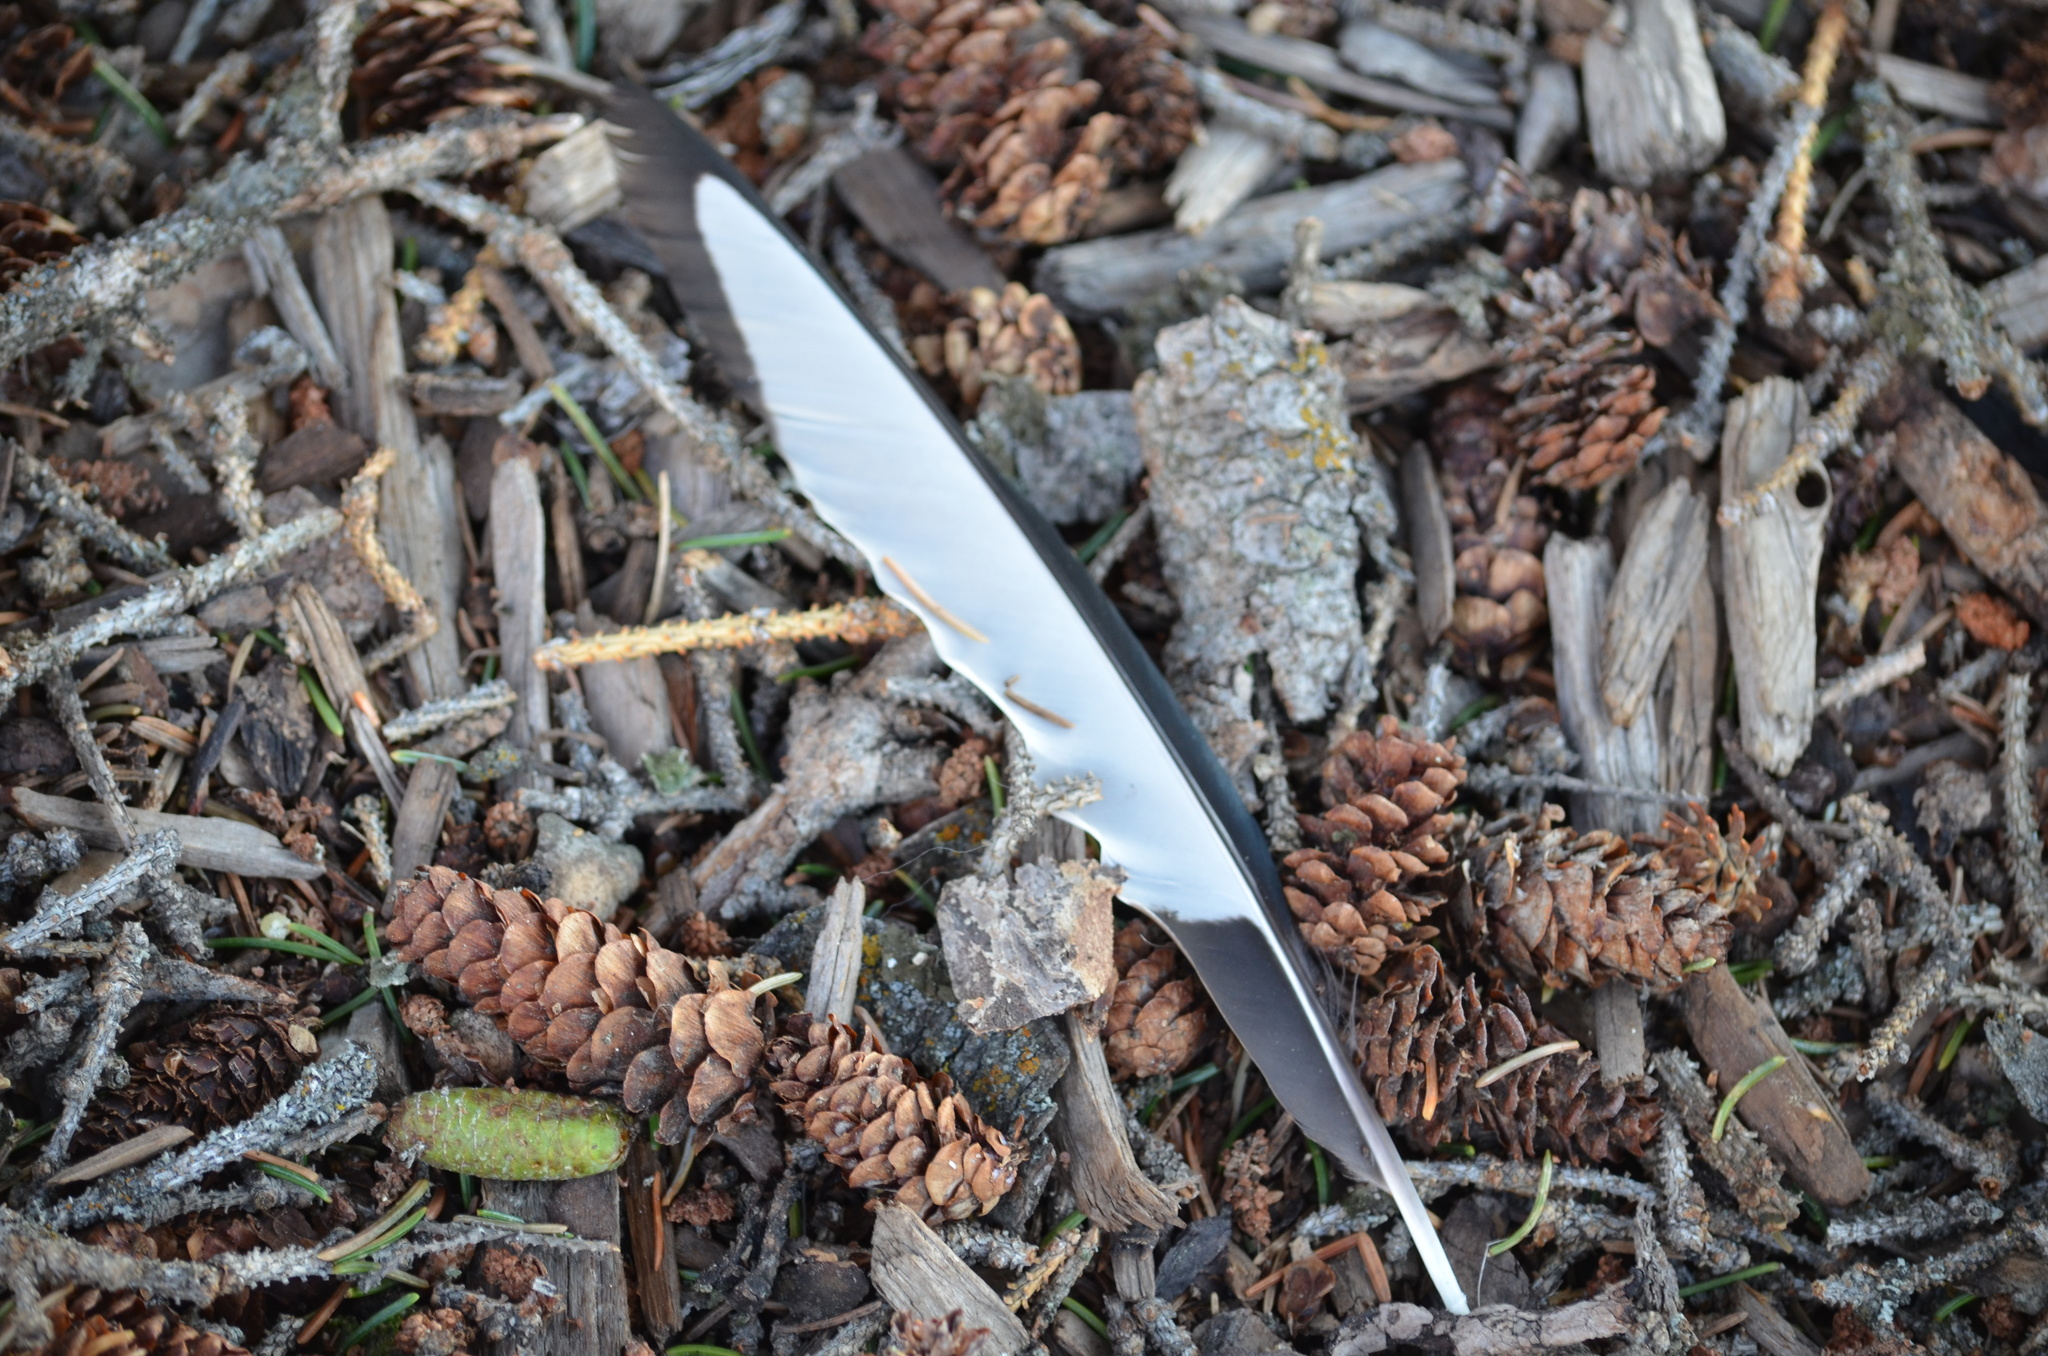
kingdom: Animalia
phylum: Chordata
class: Aves
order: Passeriformes
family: Corvidae
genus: Pica
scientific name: Pica hudsonia
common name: Black-billed magpie
